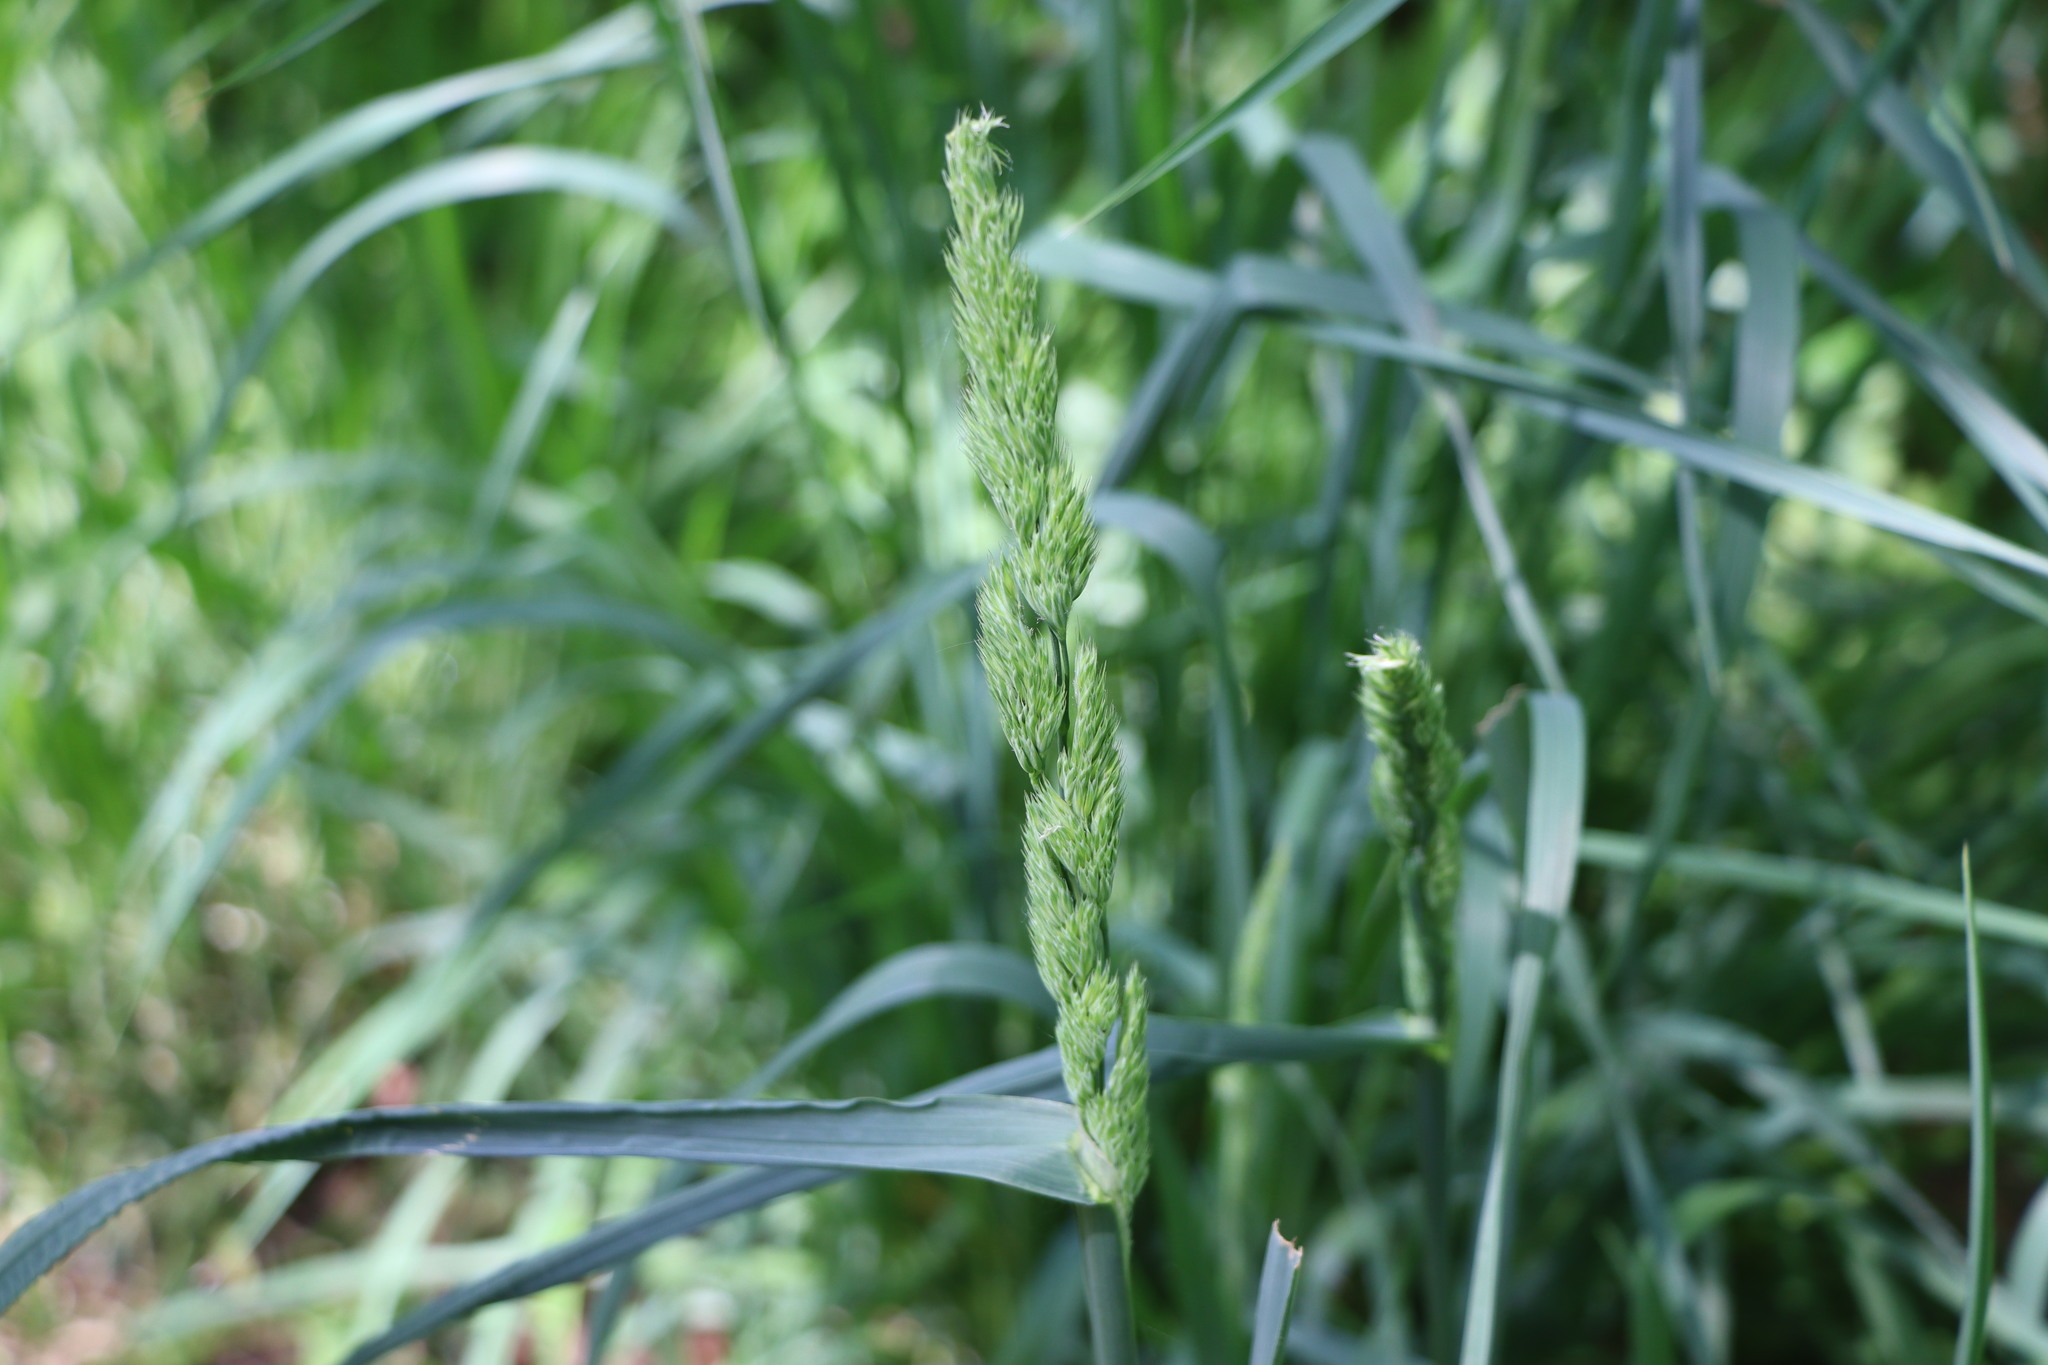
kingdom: Plantae
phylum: Tracheophyta
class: Liliopsida
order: Poales
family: Poaceae
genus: Dactylis
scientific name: Dactylis glomerata
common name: Orchardgrass
